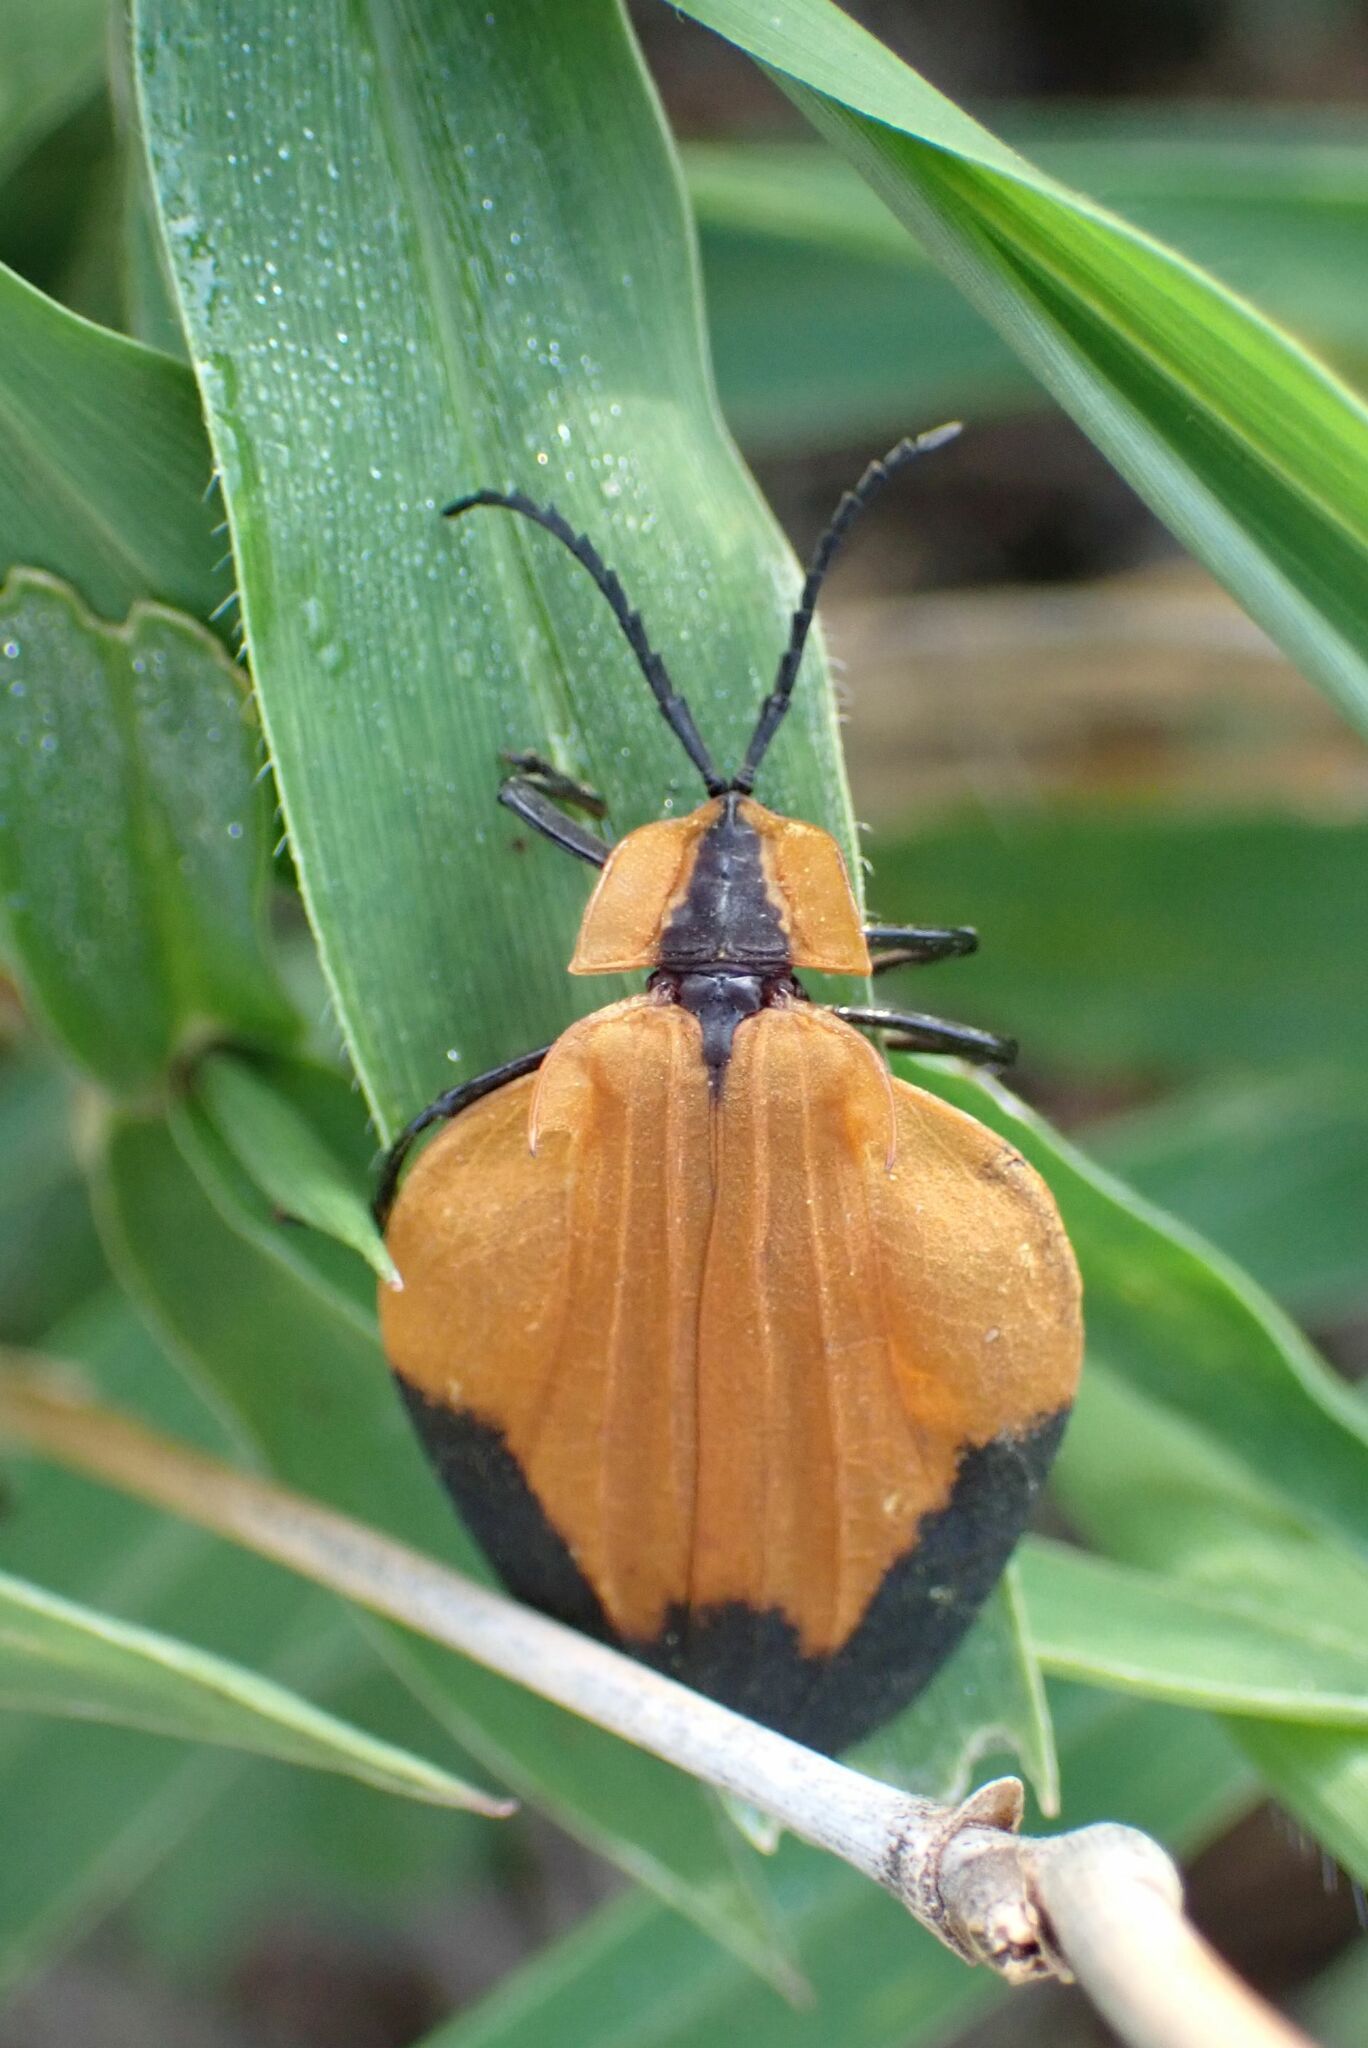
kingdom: Animalia
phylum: Arthropoda
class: Insecta
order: Coleoptera
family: Lycidae
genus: Lycus
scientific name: Lycus
